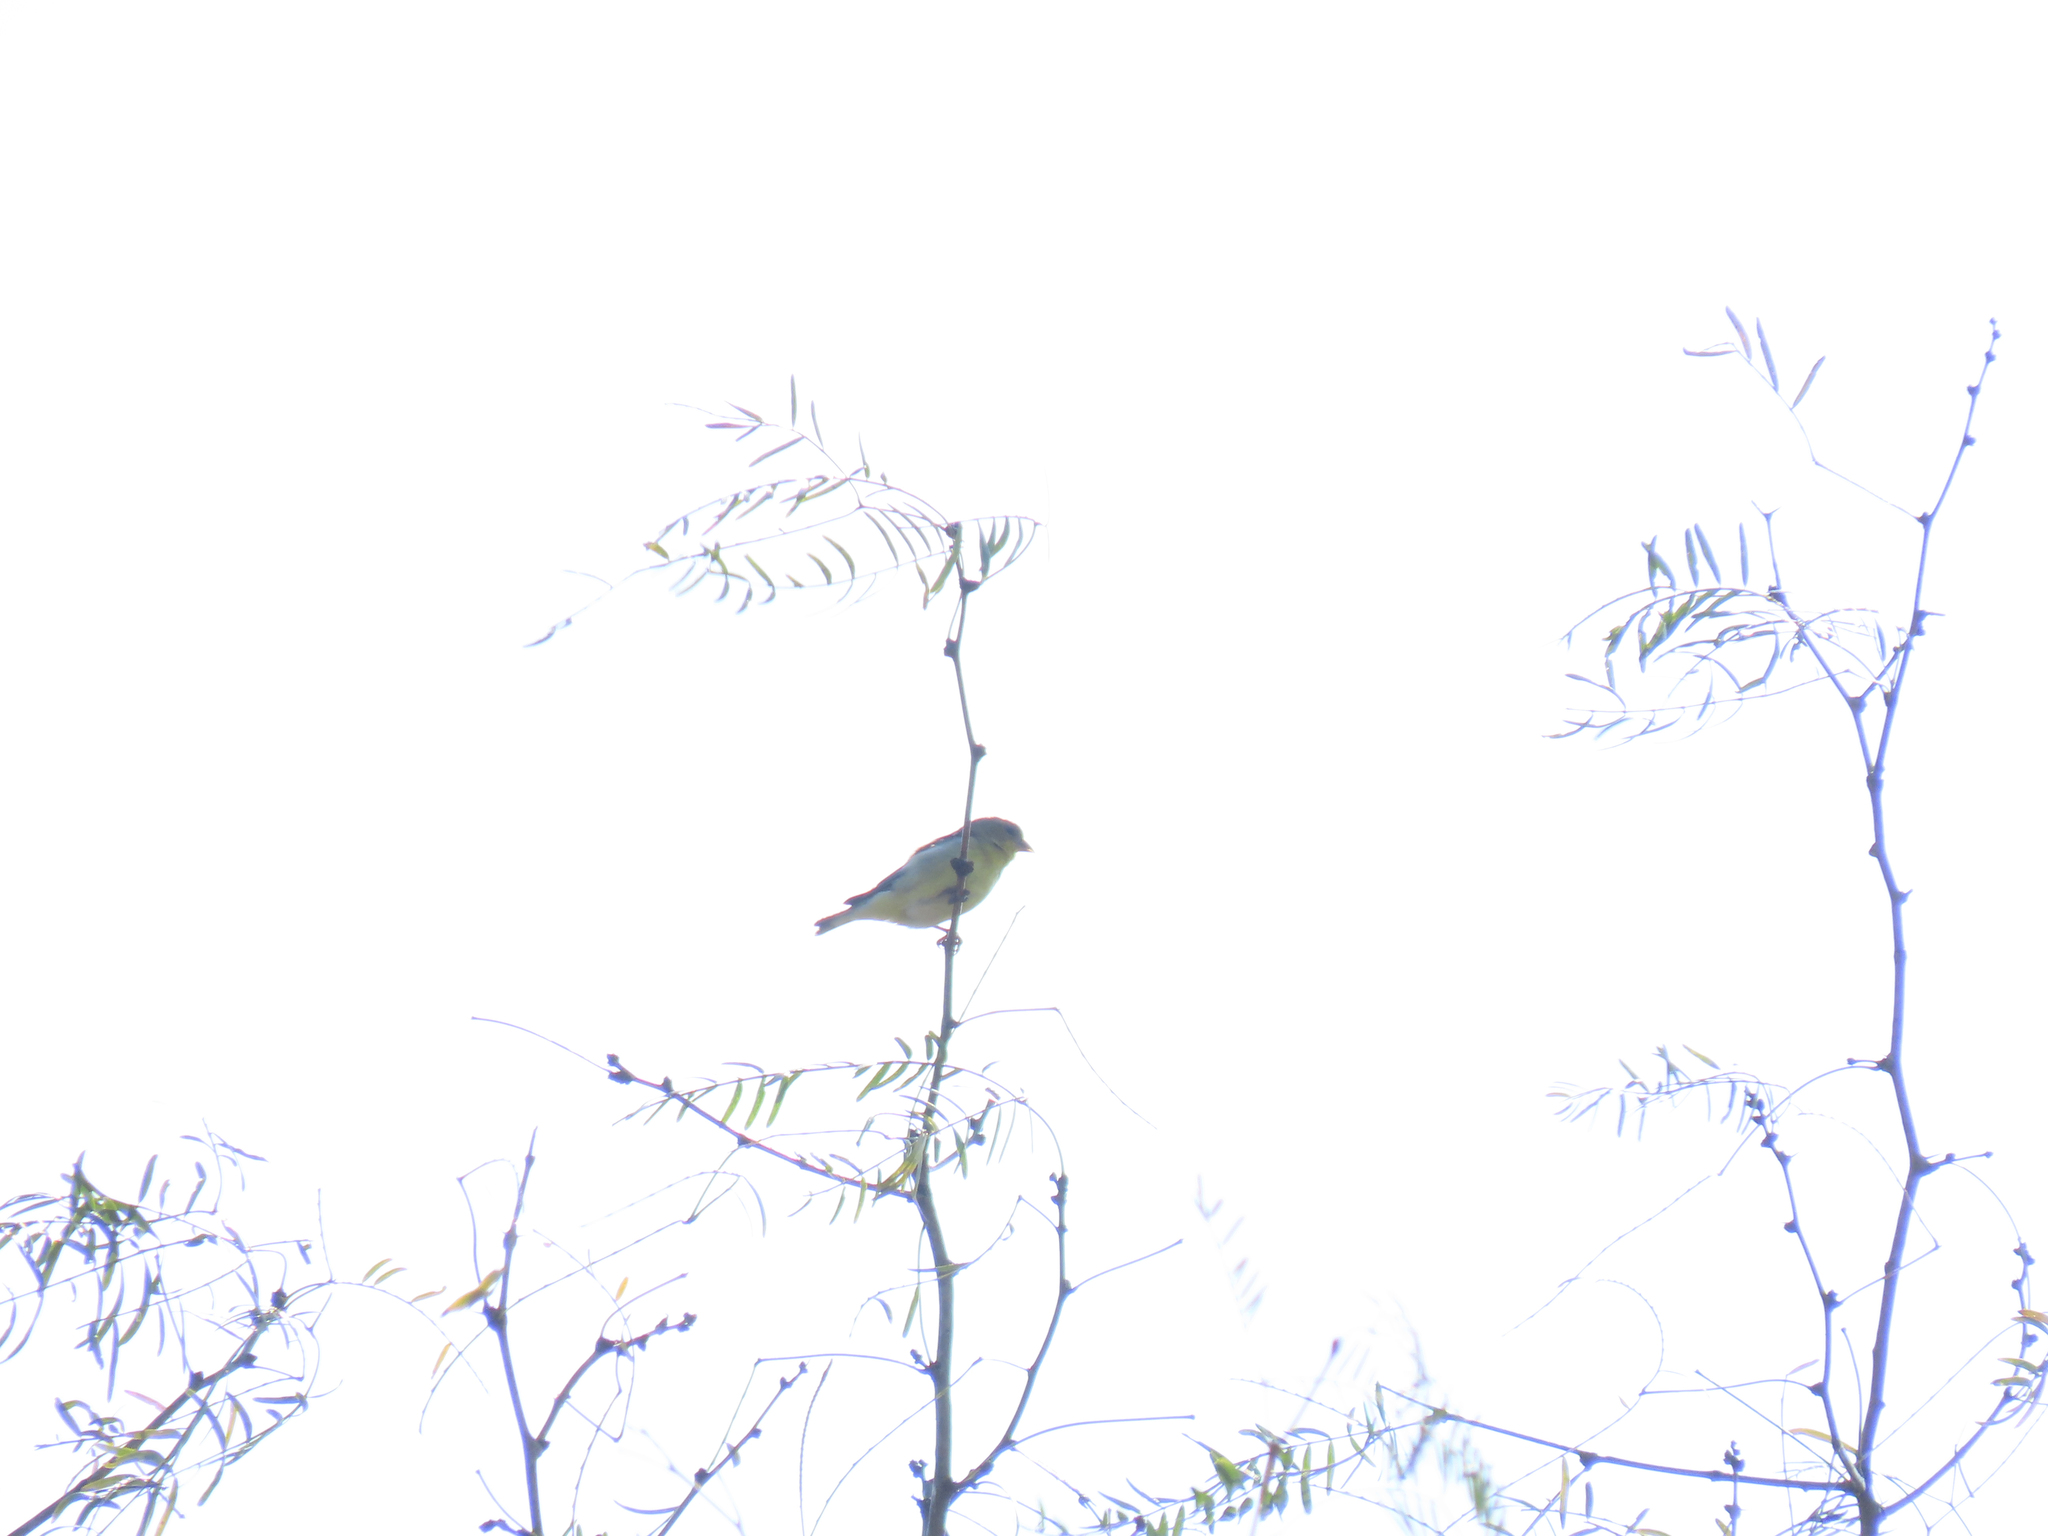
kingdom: Animalia
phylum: Chordata
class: Aves
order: Passeriformes
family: Fringillidae
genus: Spinus
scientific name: Spinus psaltria
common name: Lesser goldfinch
